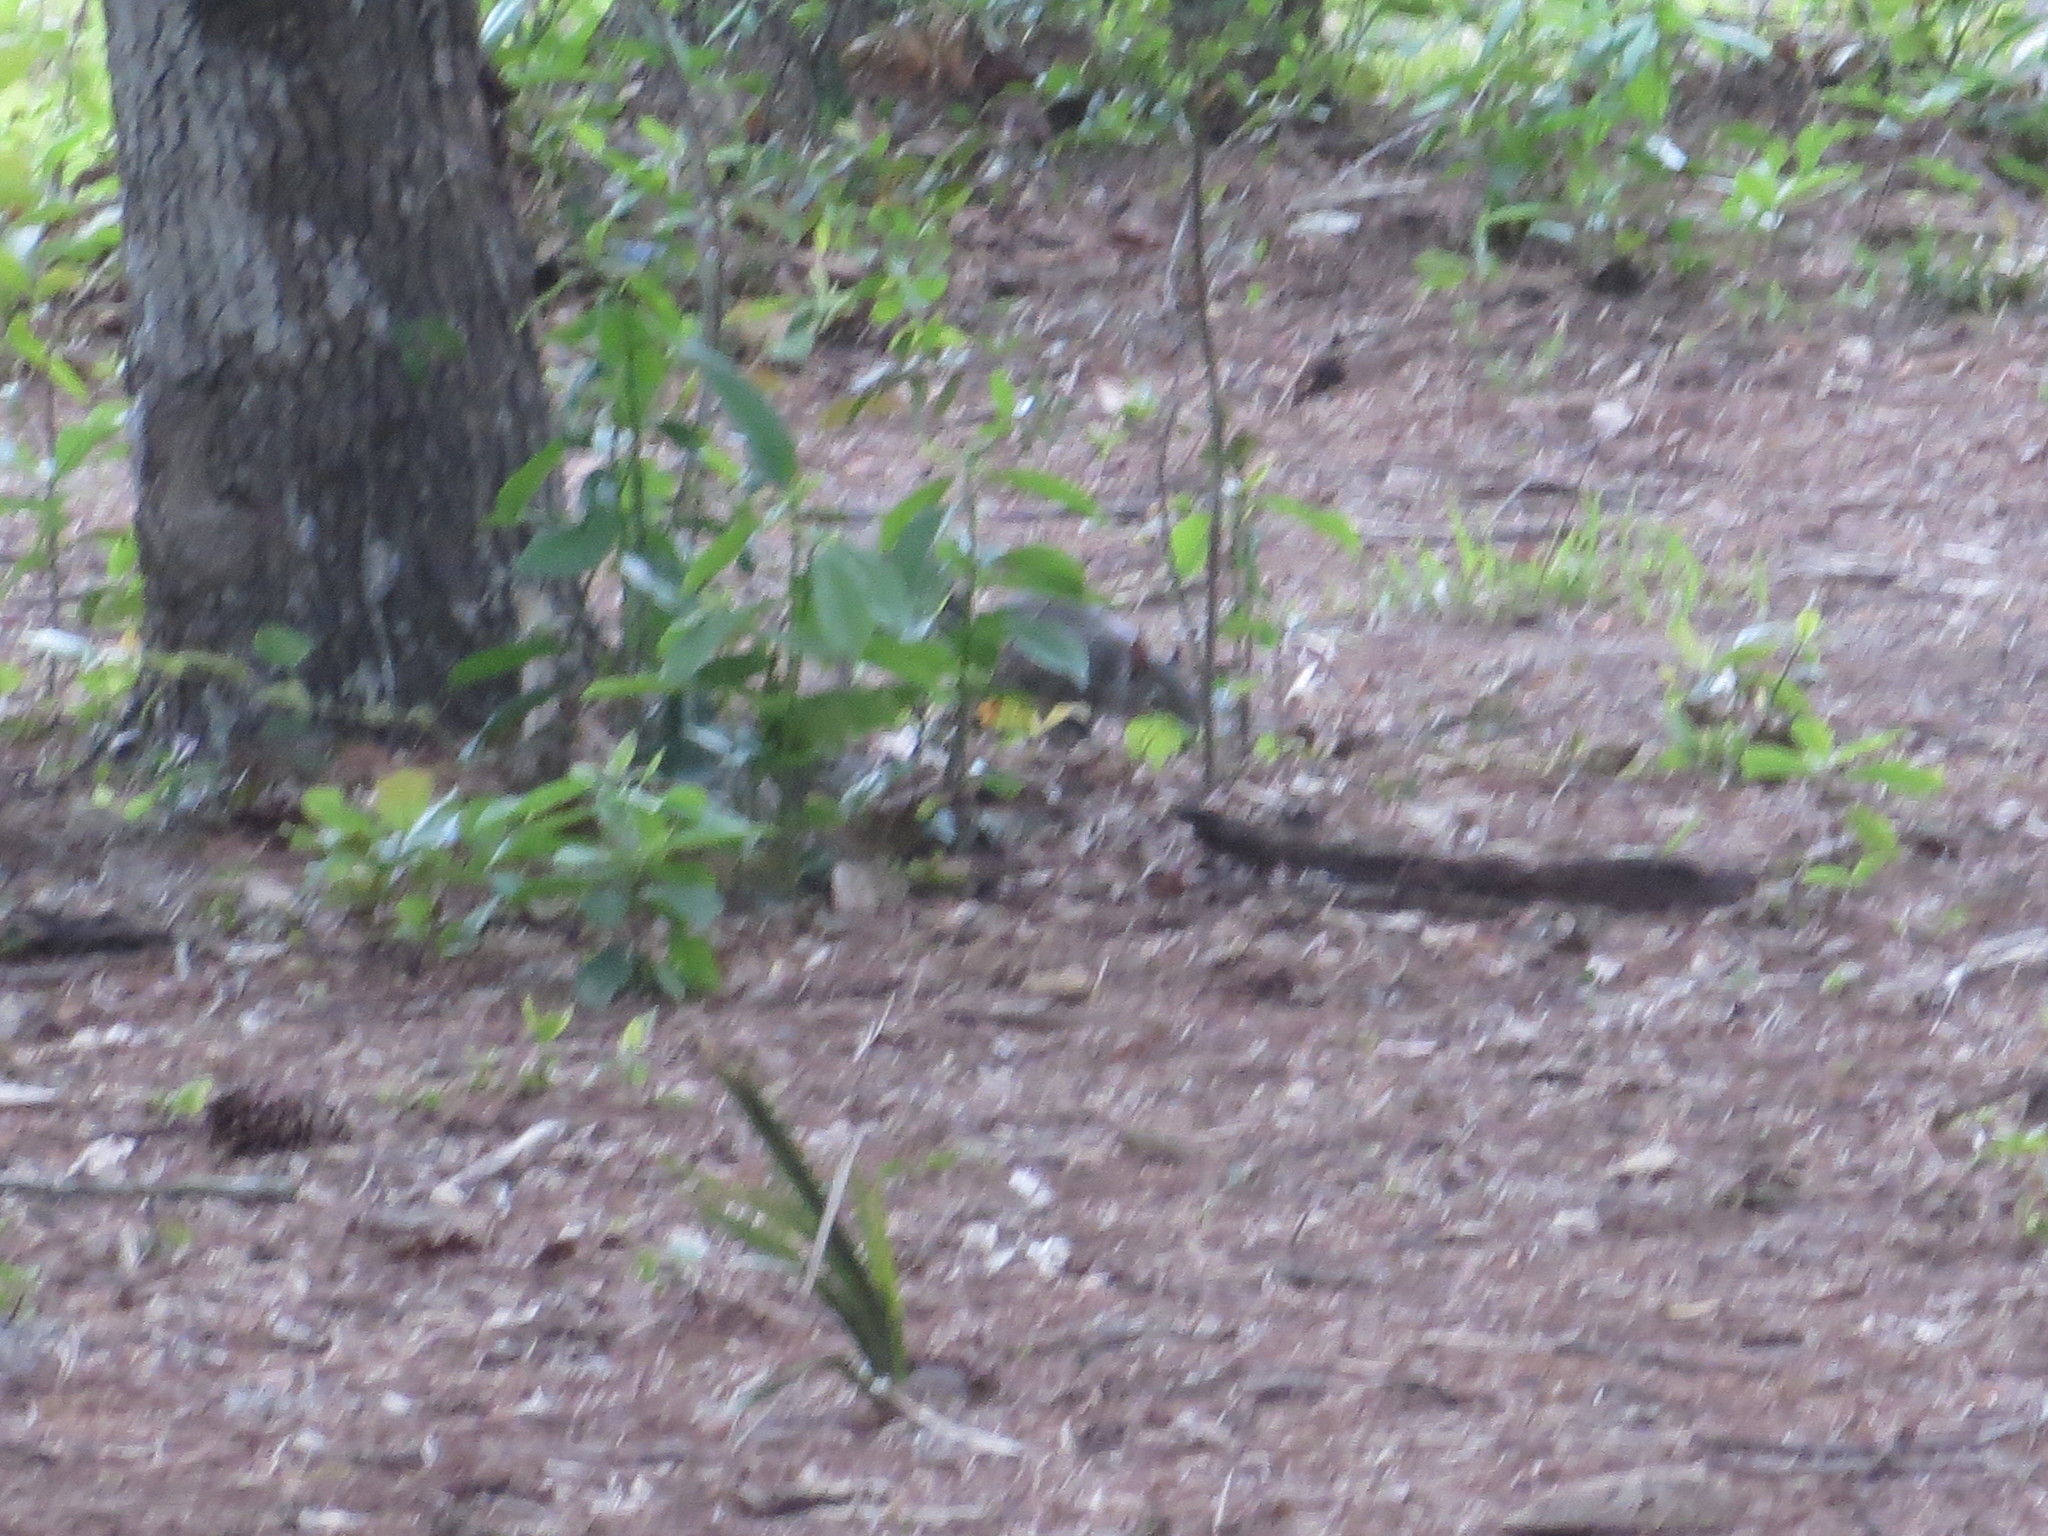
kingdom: Animalia
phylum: Chordata
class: Mammalia
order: Rodentia
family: Sciuridae
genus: Sciurus
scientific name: Sciurus carolinensis
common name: Eastern gray squirrel
